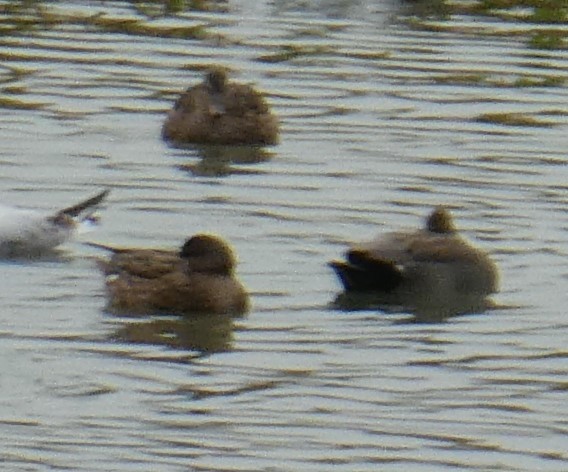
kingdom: Animalia
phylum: Chordata
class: Aves
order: Anseriformes
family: Anatidae
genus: Mareca
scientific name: Mareca strepera
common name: Gadwall
